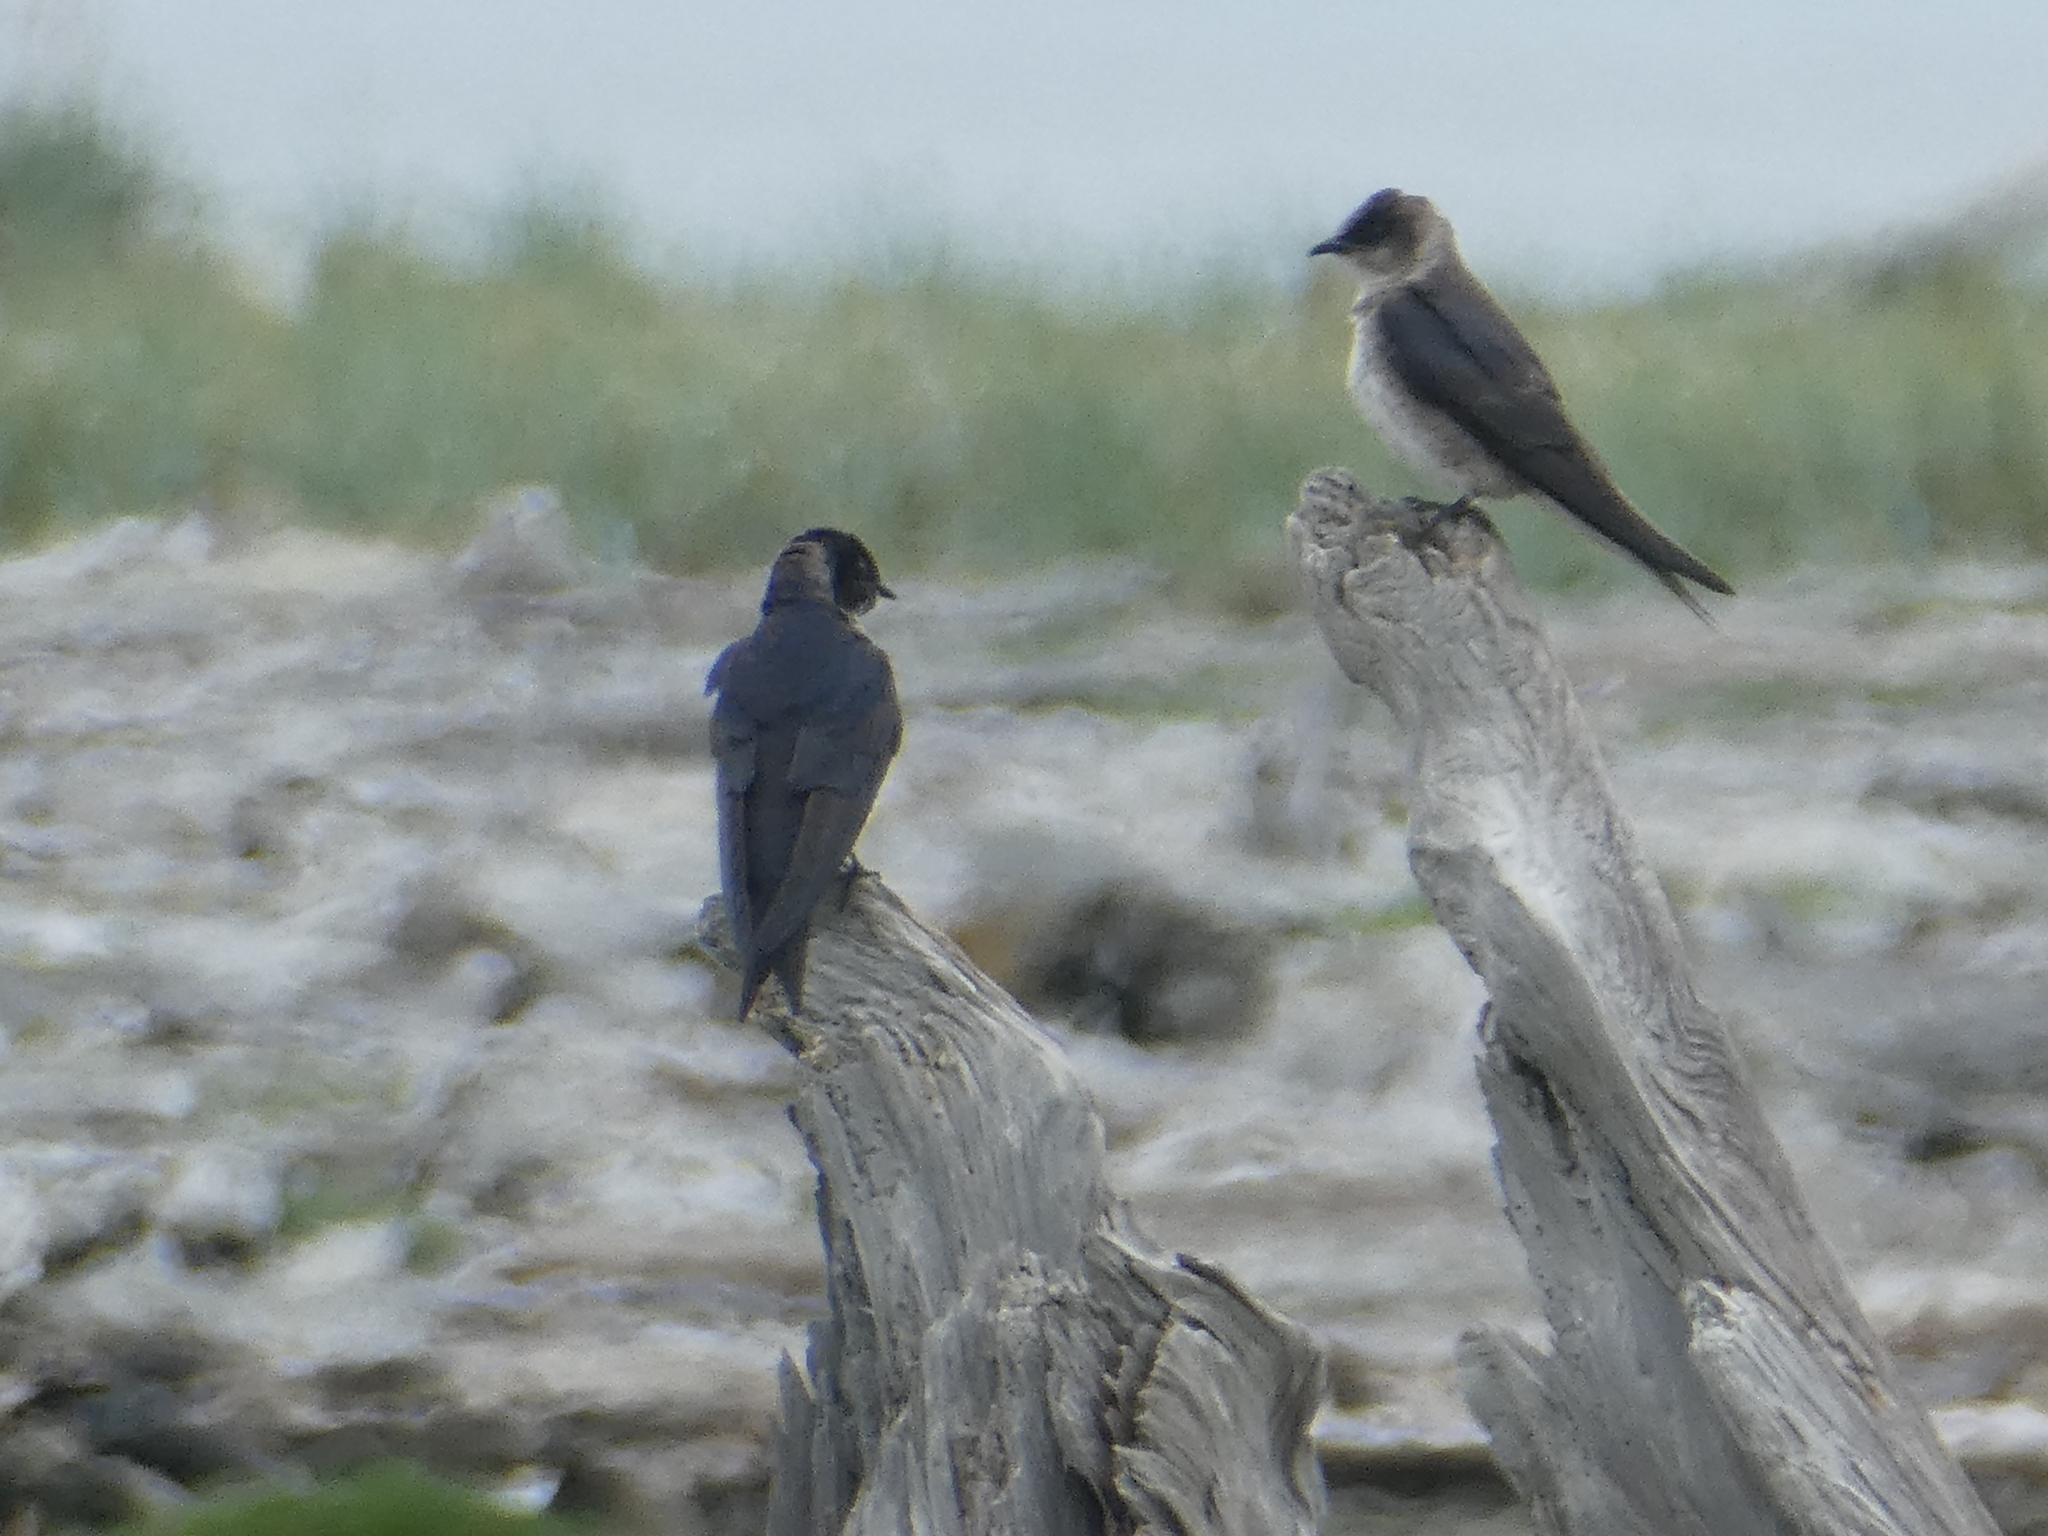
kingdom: Animalia
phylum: Chordata
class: Aves
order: Passeriformes
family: Hirundinidae
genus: Progne
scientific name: Progne subis
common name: Purple martin
